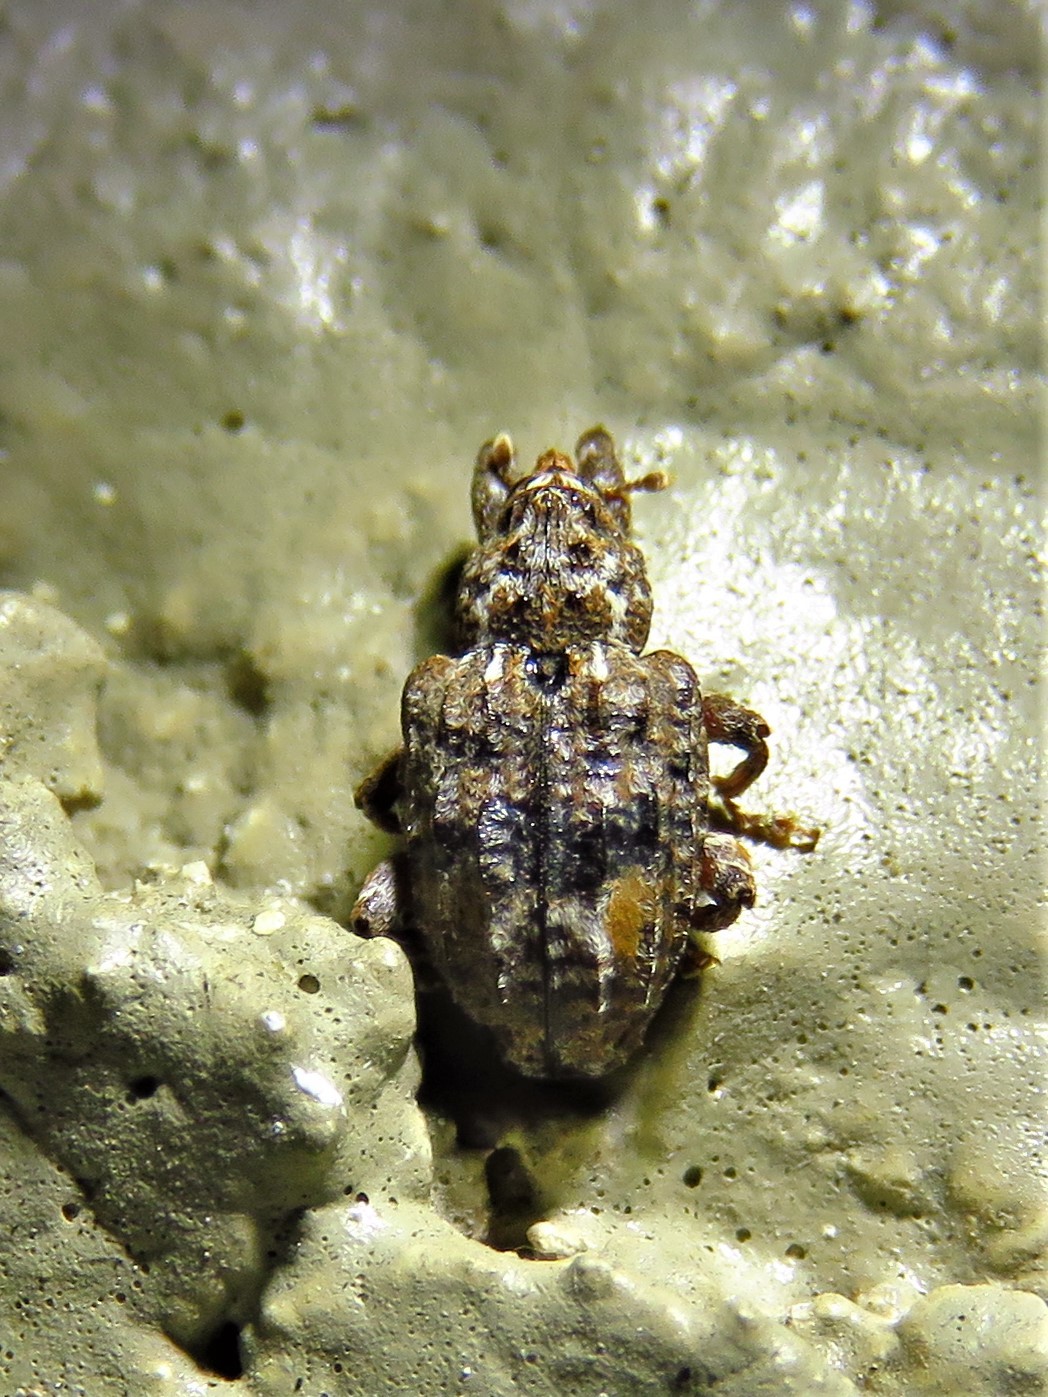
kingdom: Animalia
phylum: Arthropoda
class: Insecta
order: Coleoptera
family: Curculionidae
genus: Conotrachelus
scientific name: Conotrachelus nenuphar
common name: Plum curculio
